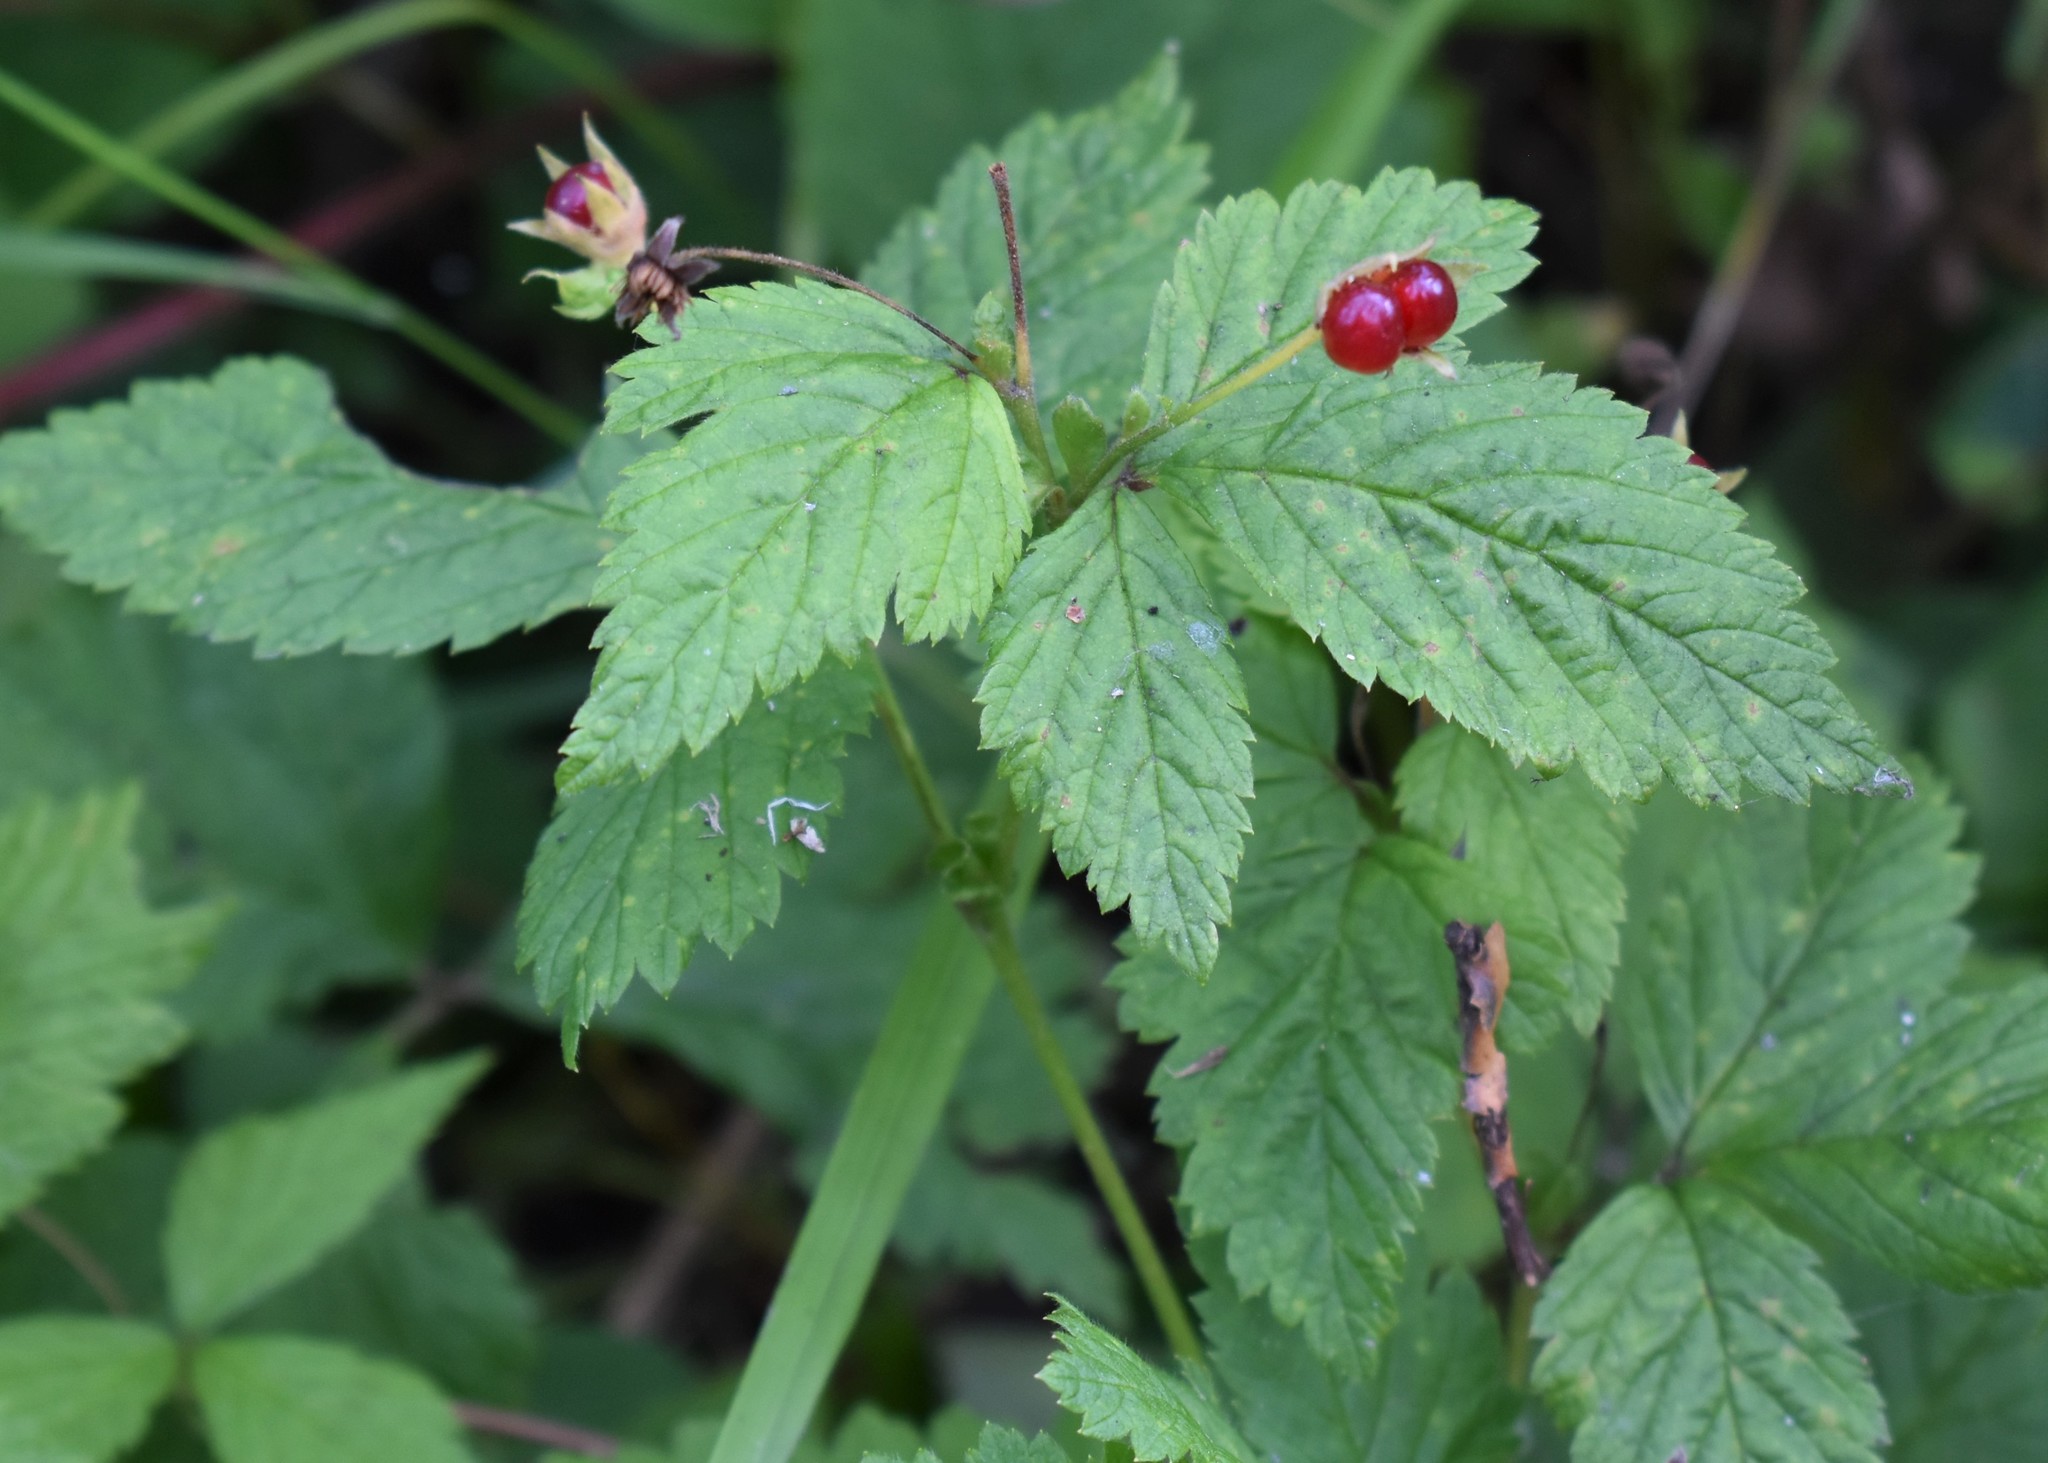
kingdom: Plantae
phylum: Tracheophyta
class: Magnoliopsida
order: Rosales
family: Rosaceae
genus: Rubus
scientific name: Rubus pubescens
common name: Dwarf raspberry
